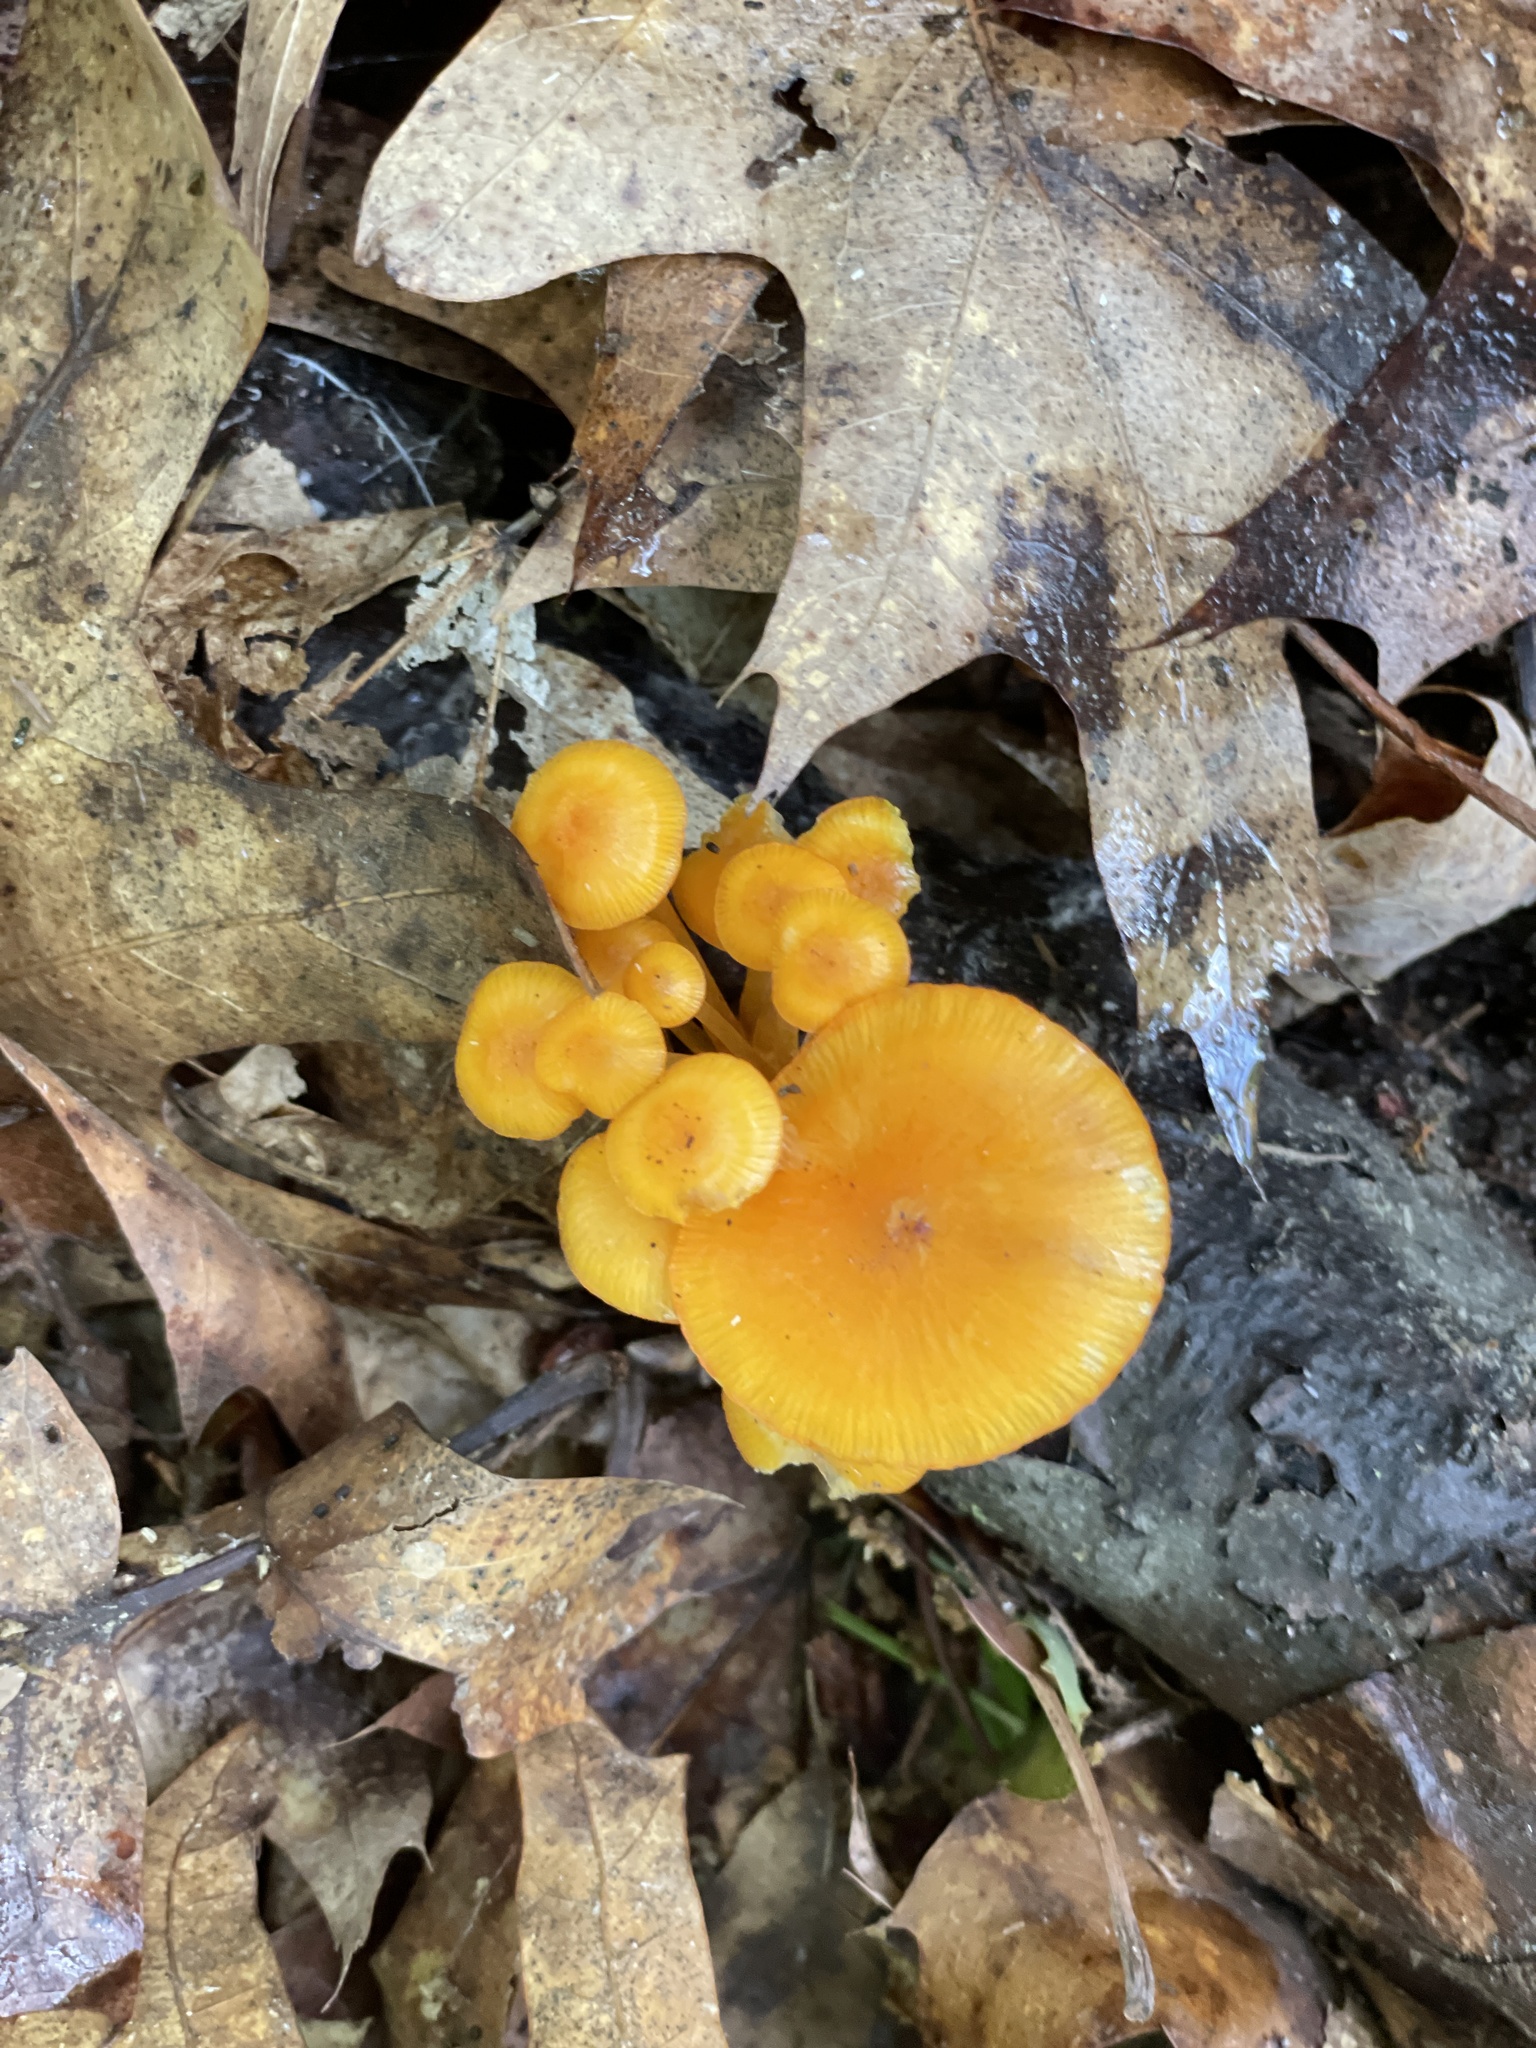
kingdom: Fungi
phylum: Basidiomycota
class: Agaricomycetes
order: Agaricales
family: Mycenaceae
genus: Mycena
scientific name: Mycena leaiana
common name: Orange mycena
